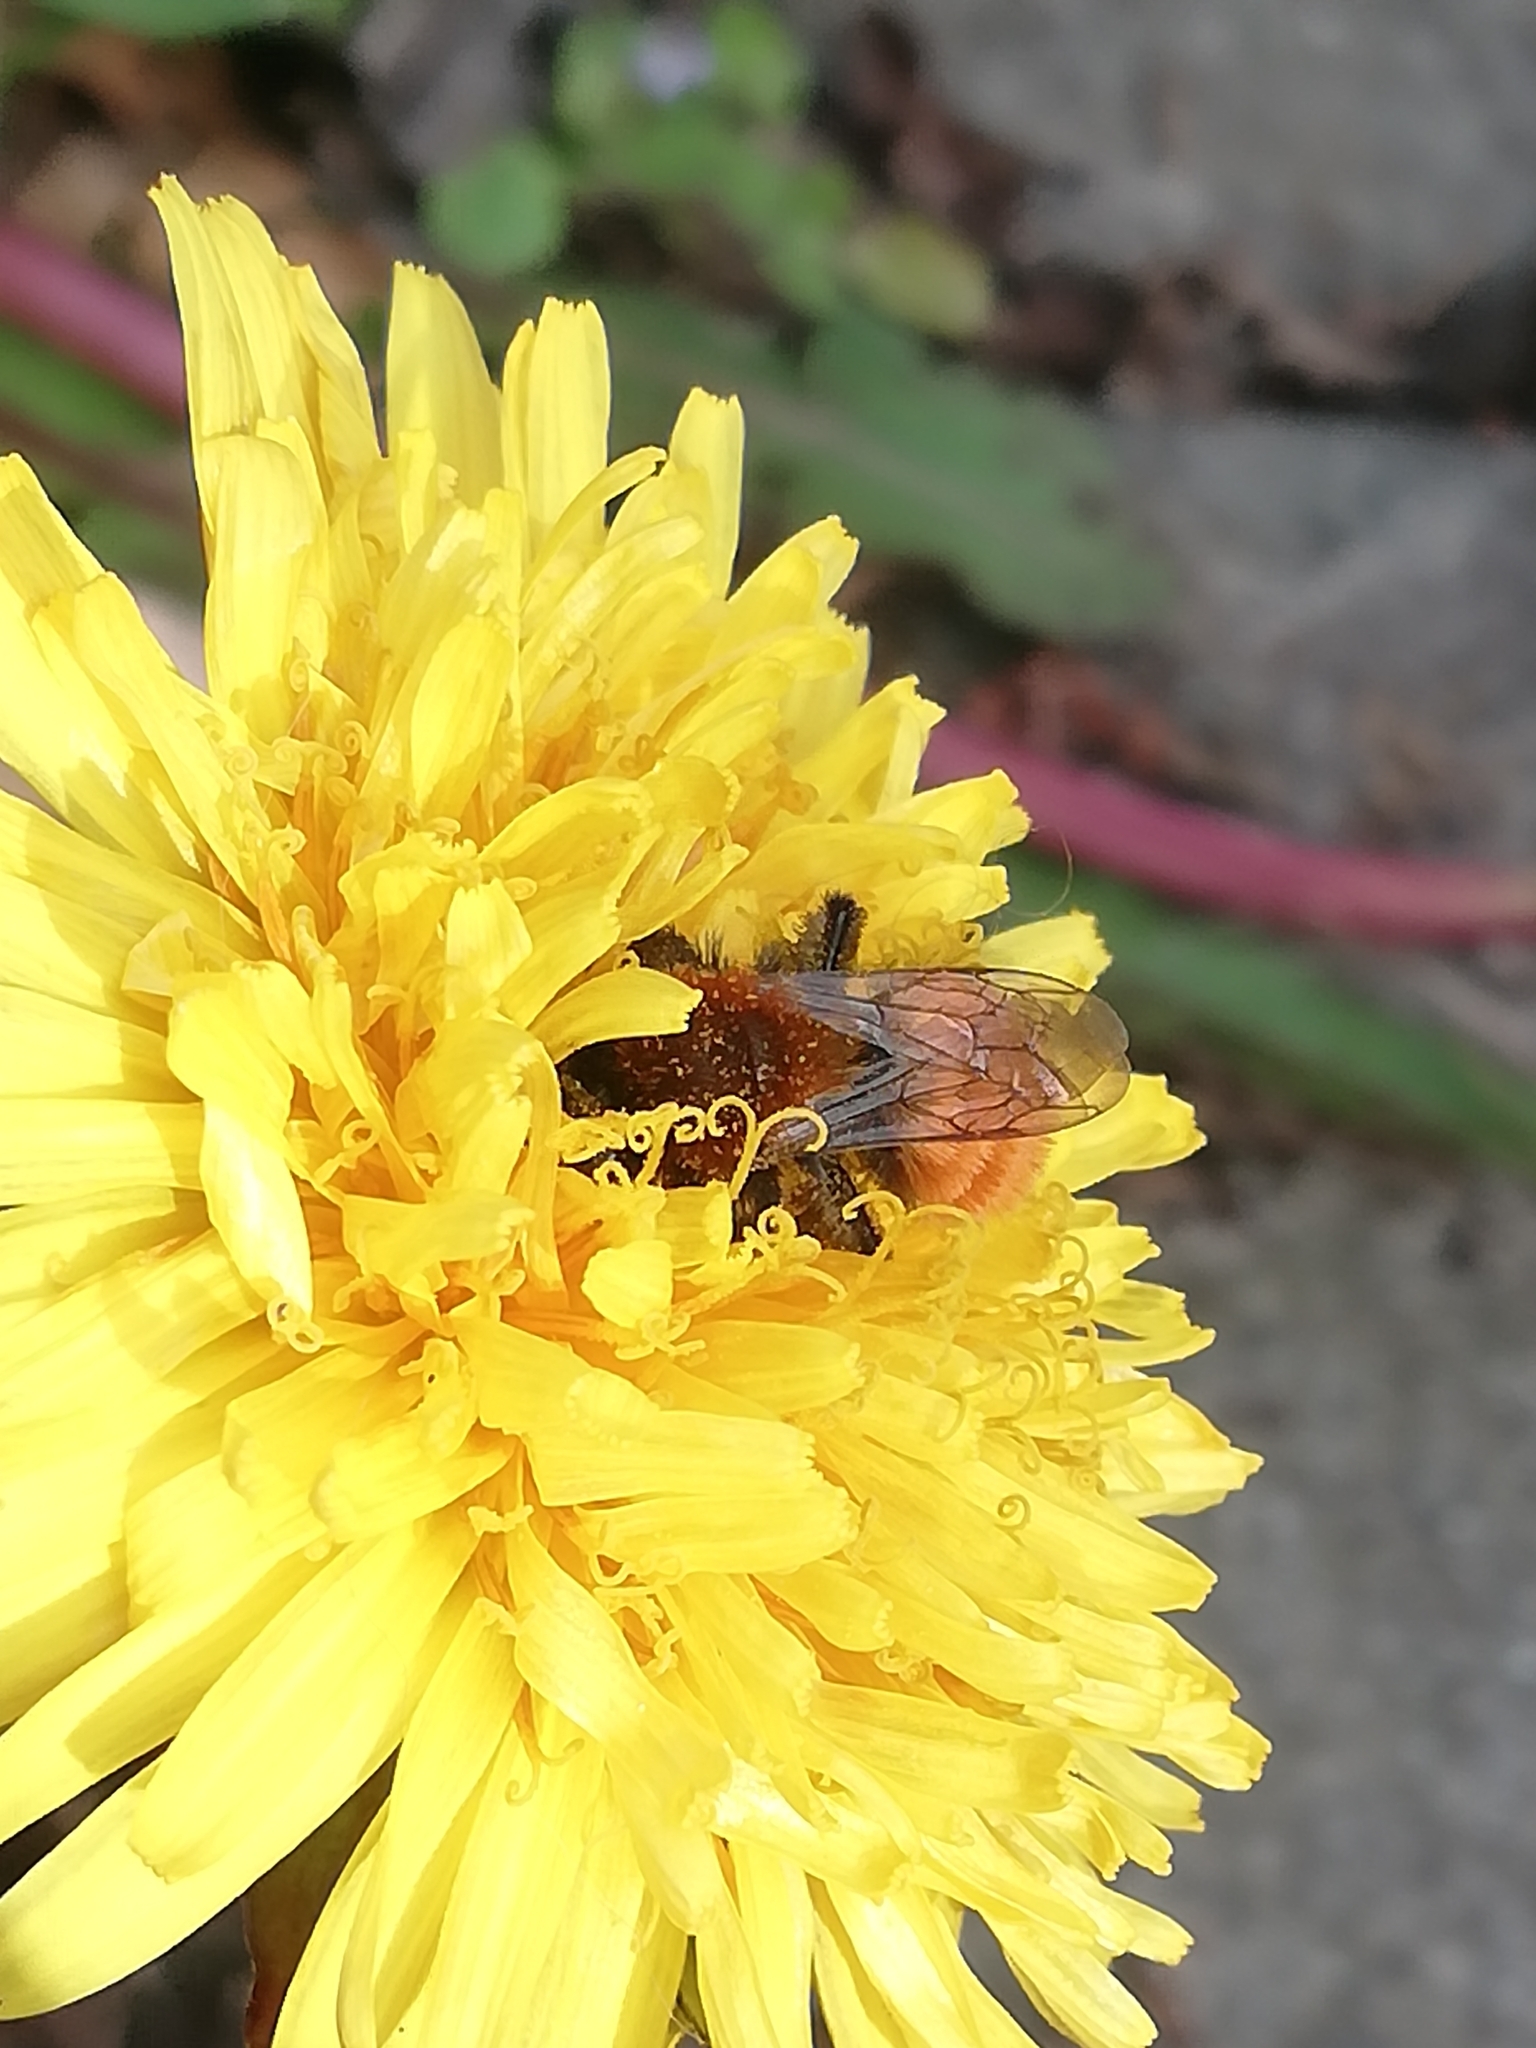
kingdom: Animalia
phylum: Arthropoda
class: Insecta
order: Hymenoptera
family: Andrenidae
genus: Andrena
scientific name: Andrena fulva
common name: Tawny mining bee
